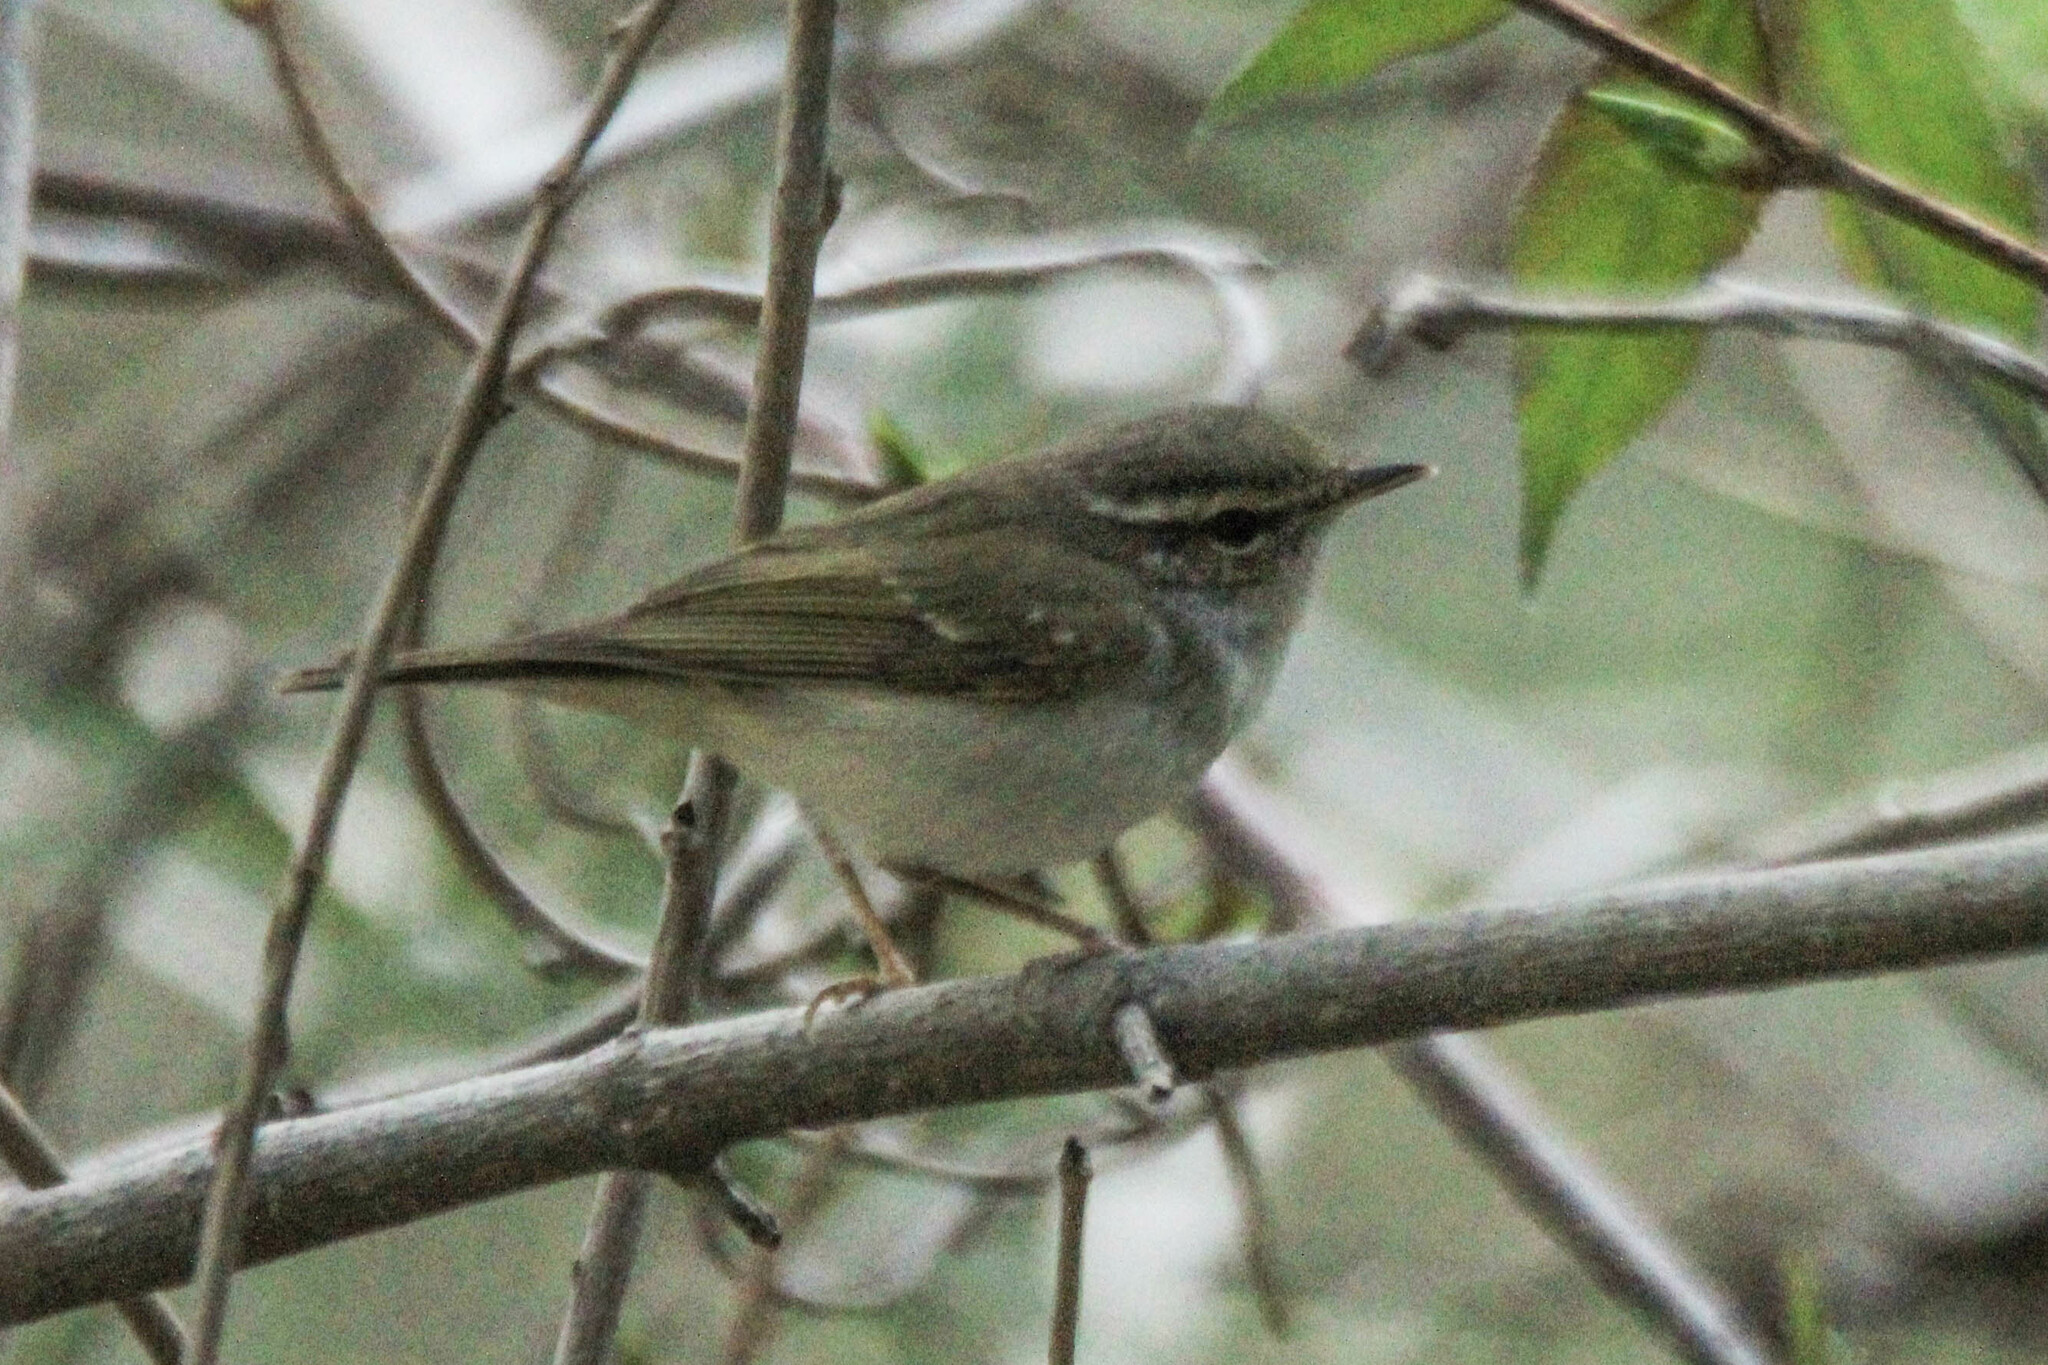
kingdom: Animalia
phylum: Chordata
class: Aves
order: Passeriformes
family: Phylloscopidae
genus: Phylloscopus
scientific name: Phylloscopus tenellipes
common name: Pale-legged leaf warbler
